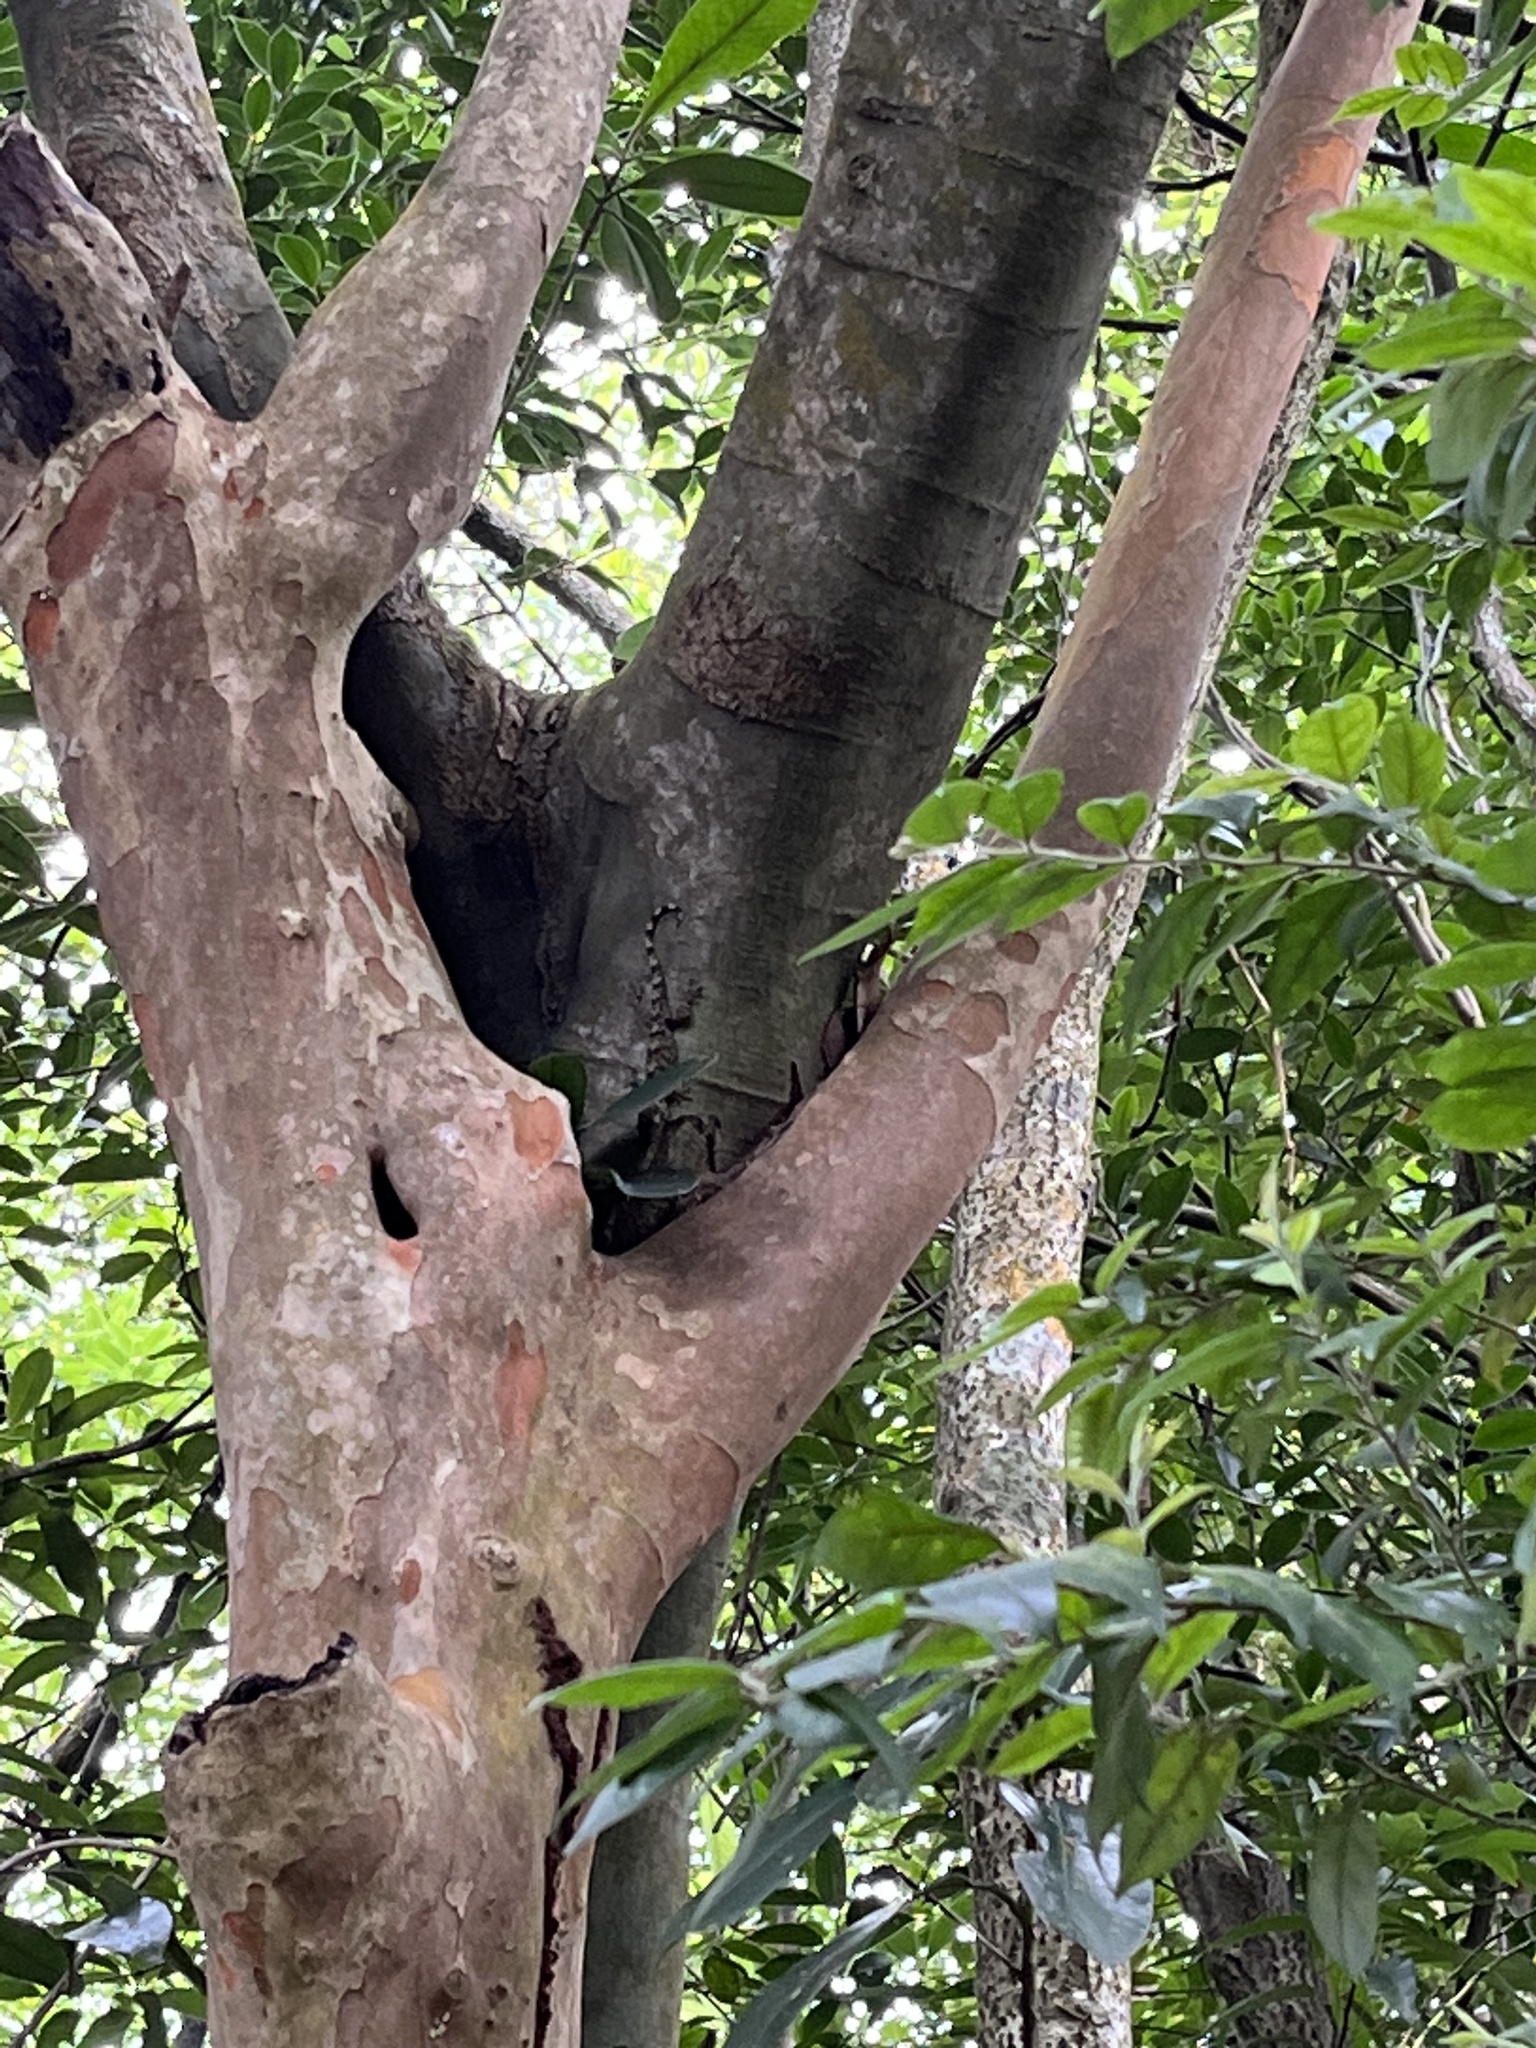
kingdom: Animalia
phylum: Chordata
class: Squamata
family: Gekkonidae
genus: Gekko
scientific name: Gekko chinensis
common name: Gray's chinese gecko
